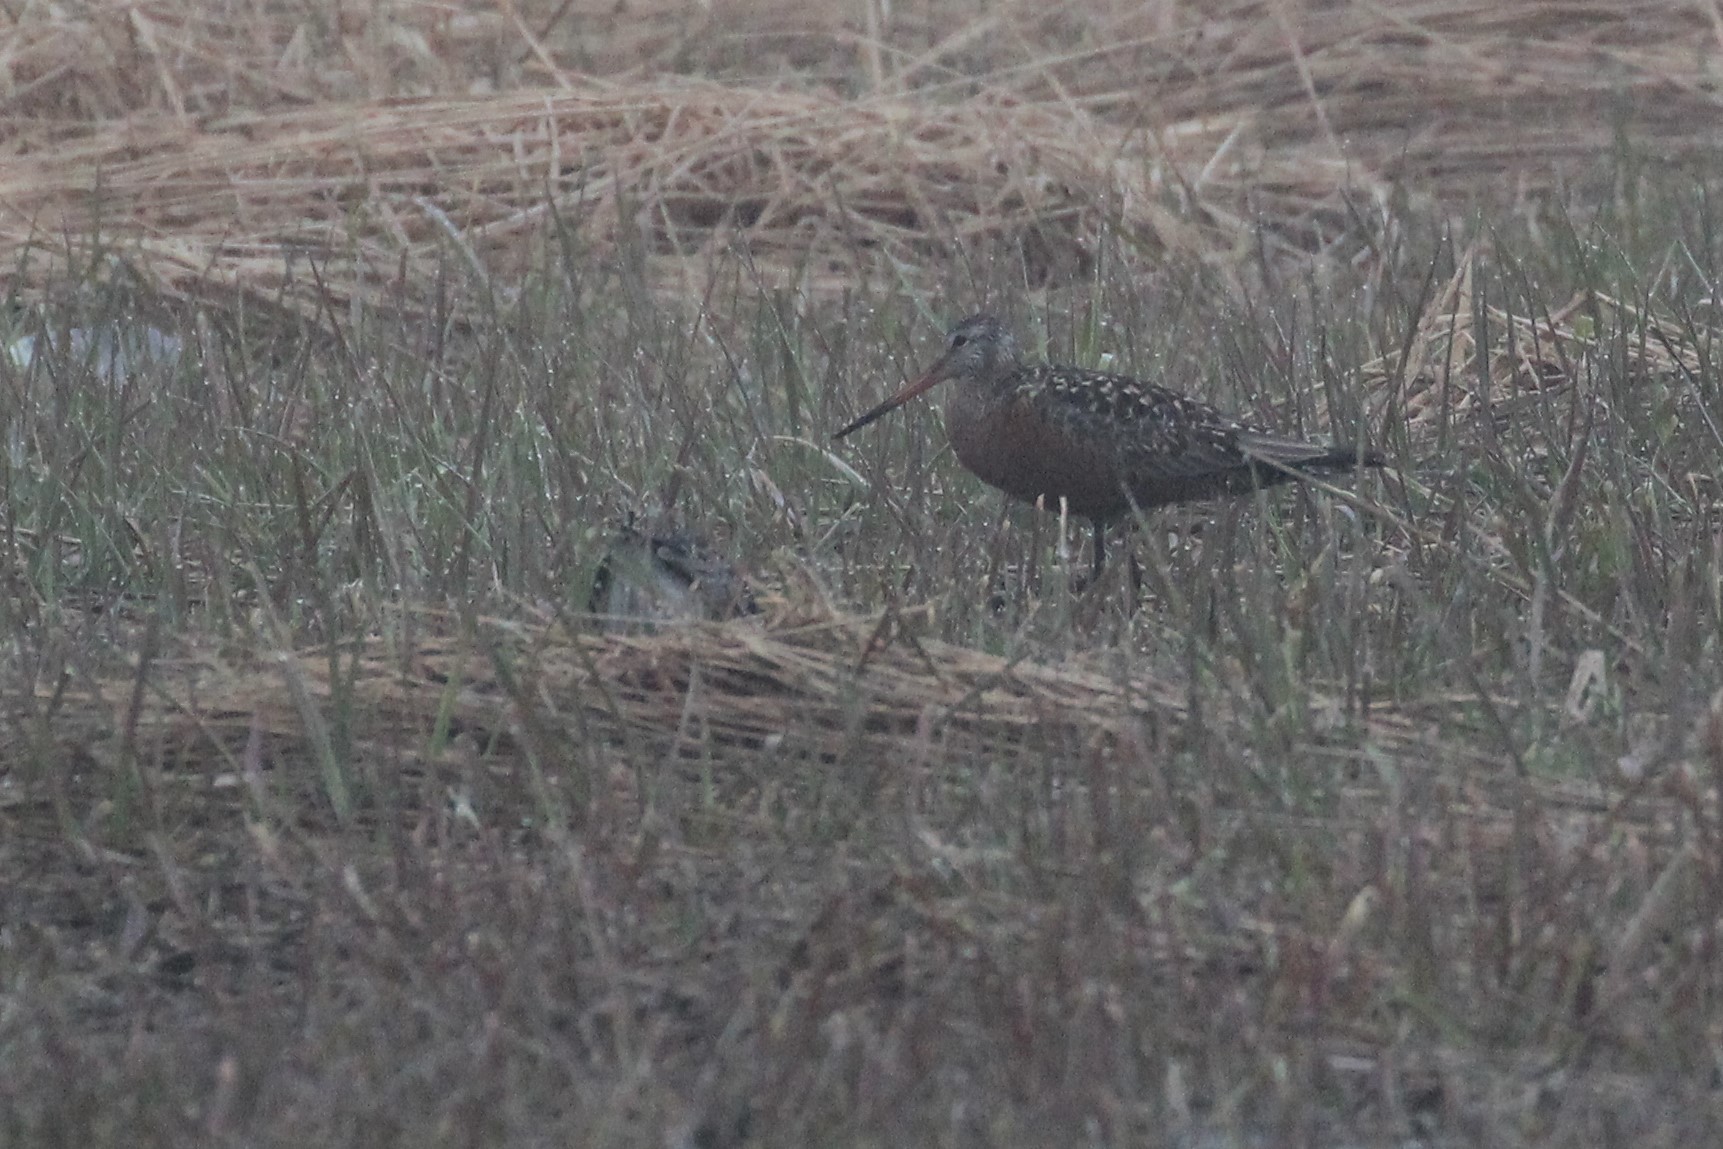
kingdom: Animalia
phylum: Chordata
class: Aves
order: Charadriiformes
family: Scolopacidae
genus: Limosa
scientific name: Limosa haemastica
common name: Hudsonian godwit
